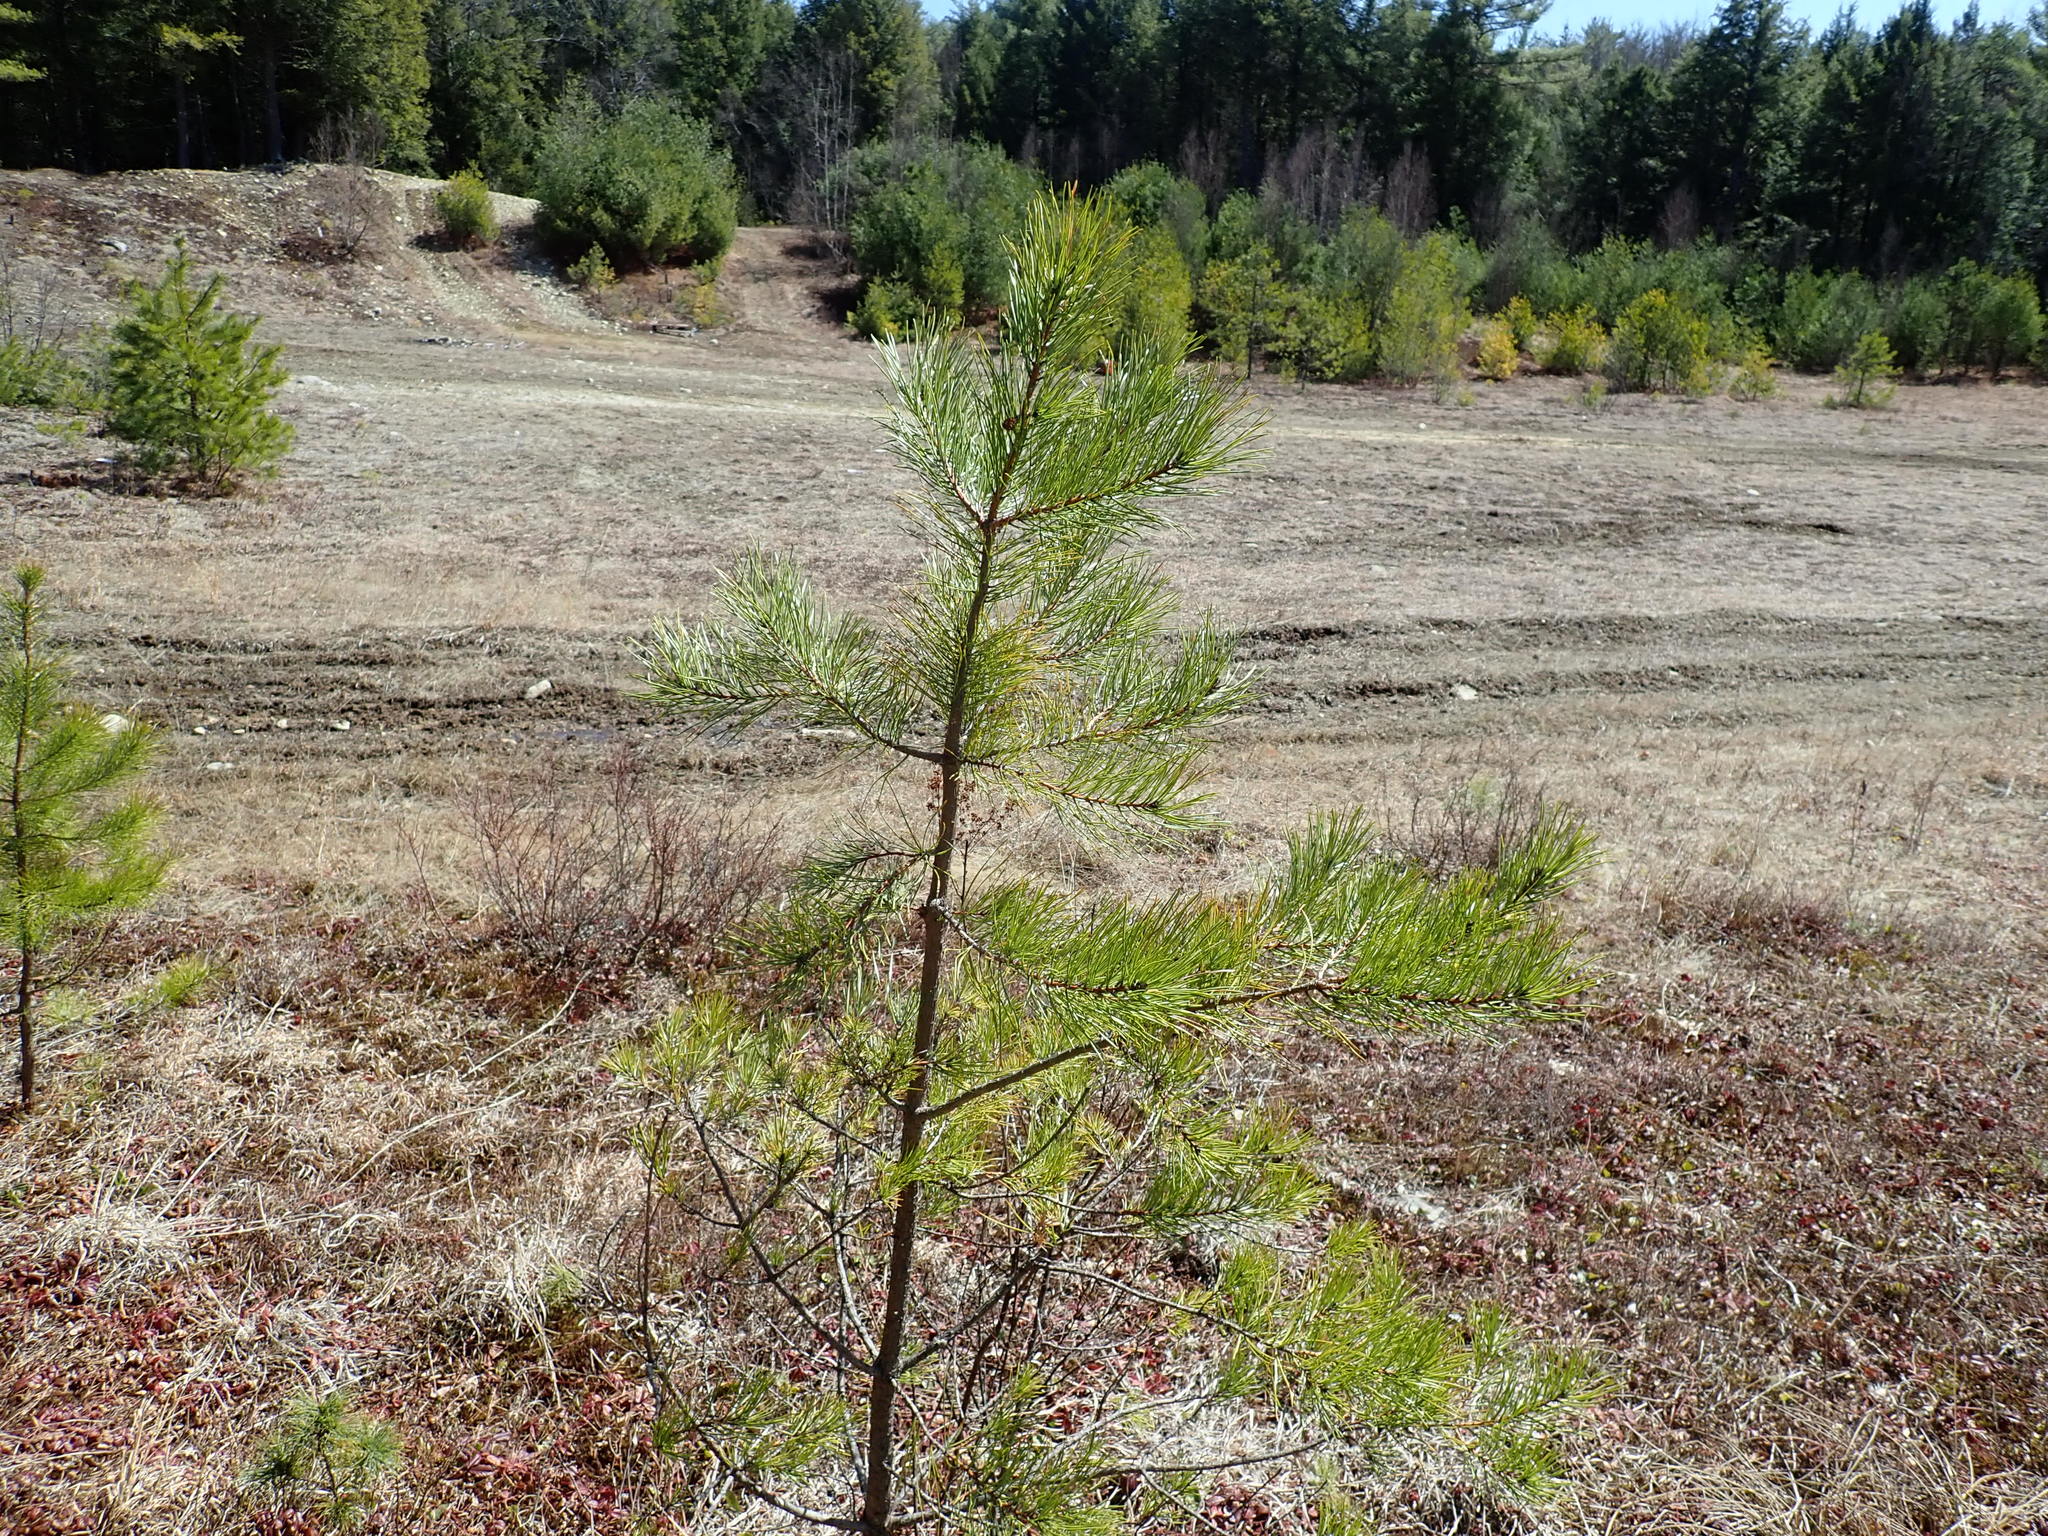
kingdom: Plantae
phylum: Tracheophyta
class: Pinopsida
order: Pinales
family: Pinaceae
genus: Pinus
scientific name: Pinus rigida
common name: Pitch pine
